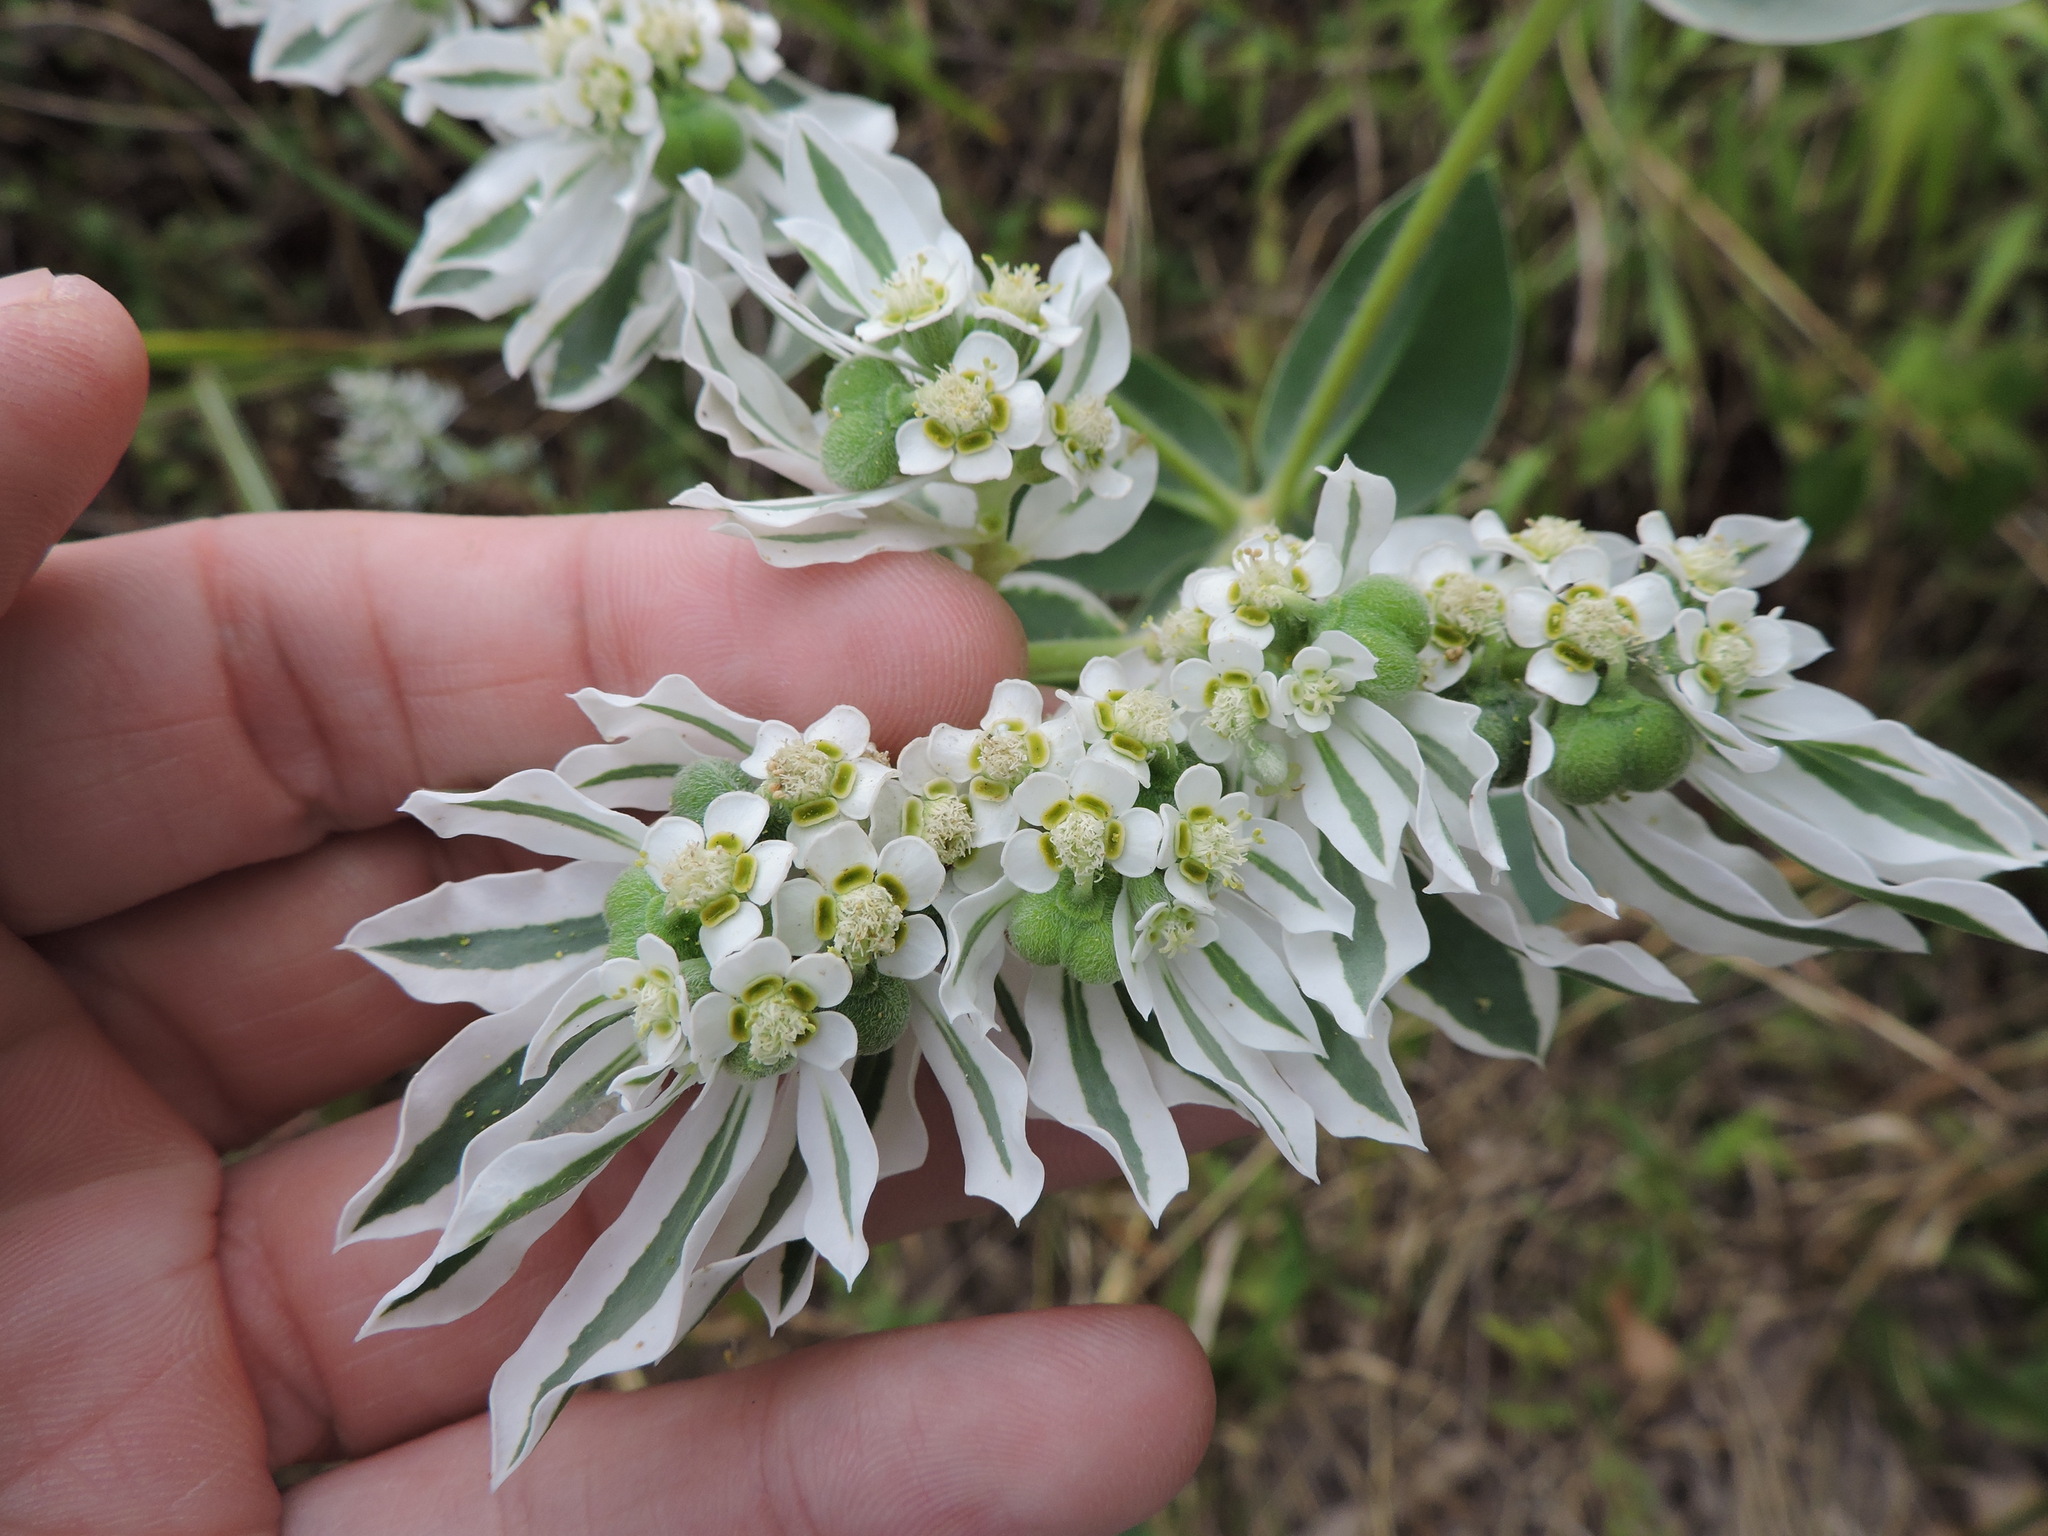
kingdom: Plantae
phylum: Tracheophyta
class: Magnoliopsida
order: Malpighiales
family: Euphorbiaceae
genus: Euphorbia
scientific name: Euphorbia marginata
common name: Ghostweed
